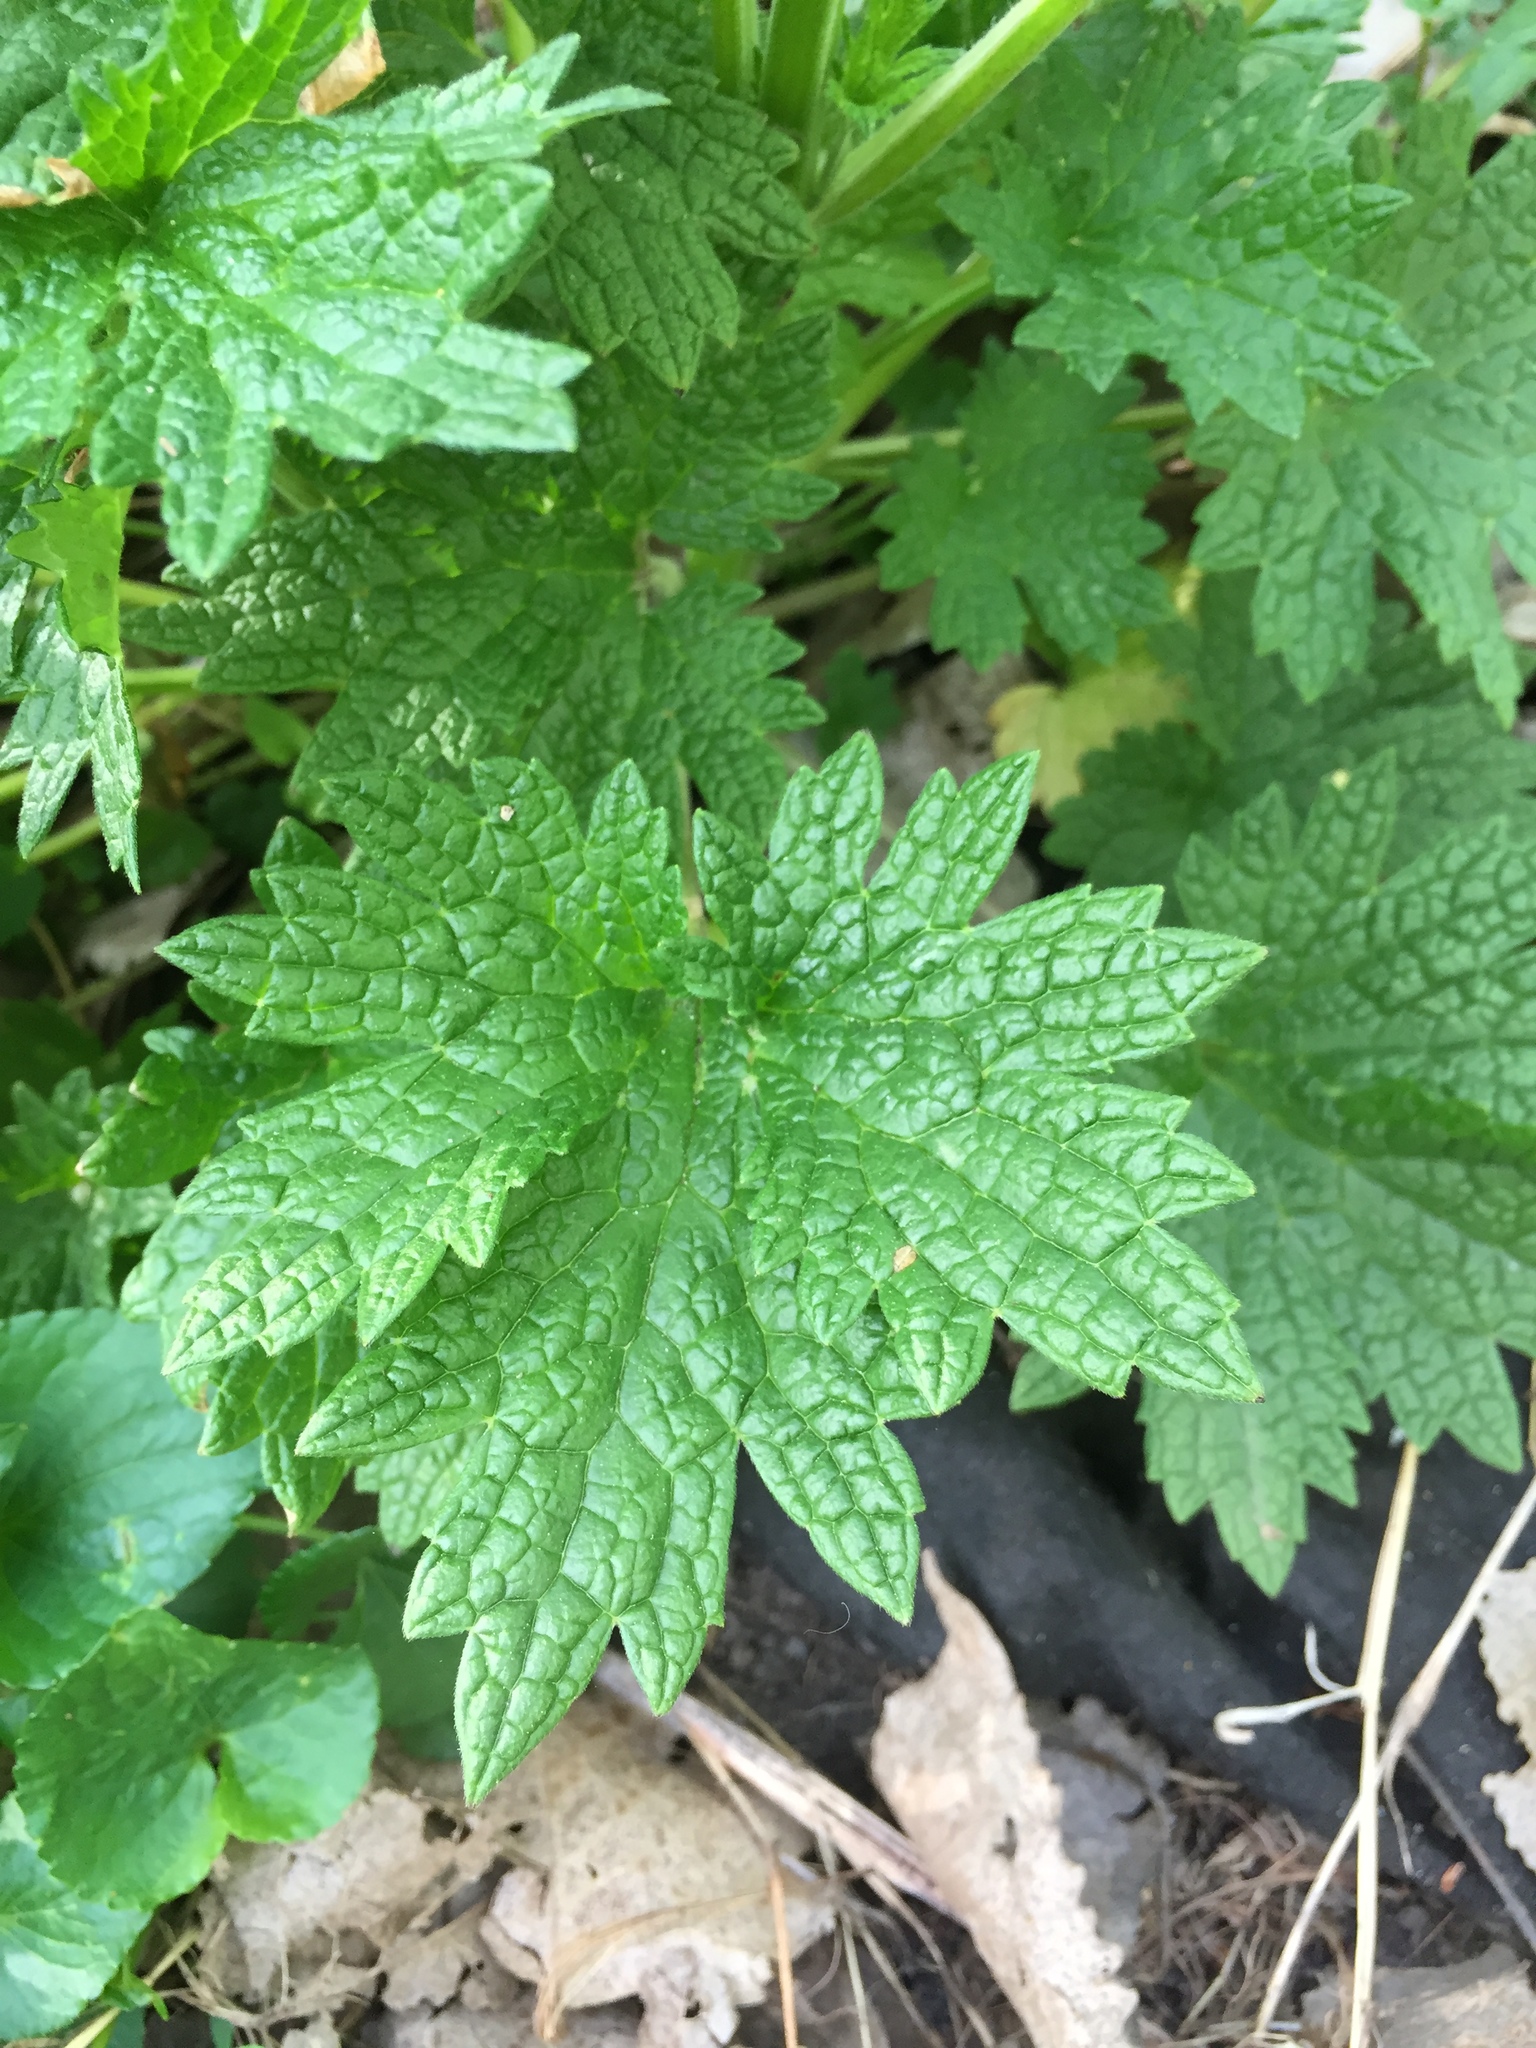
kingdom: Plantae
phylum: Tracheophyta
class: Magnoliopsida
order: Lamiales
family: Lamiaceae
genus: Leonurus
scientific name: Leonurus cardiaca
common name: Motherwort
